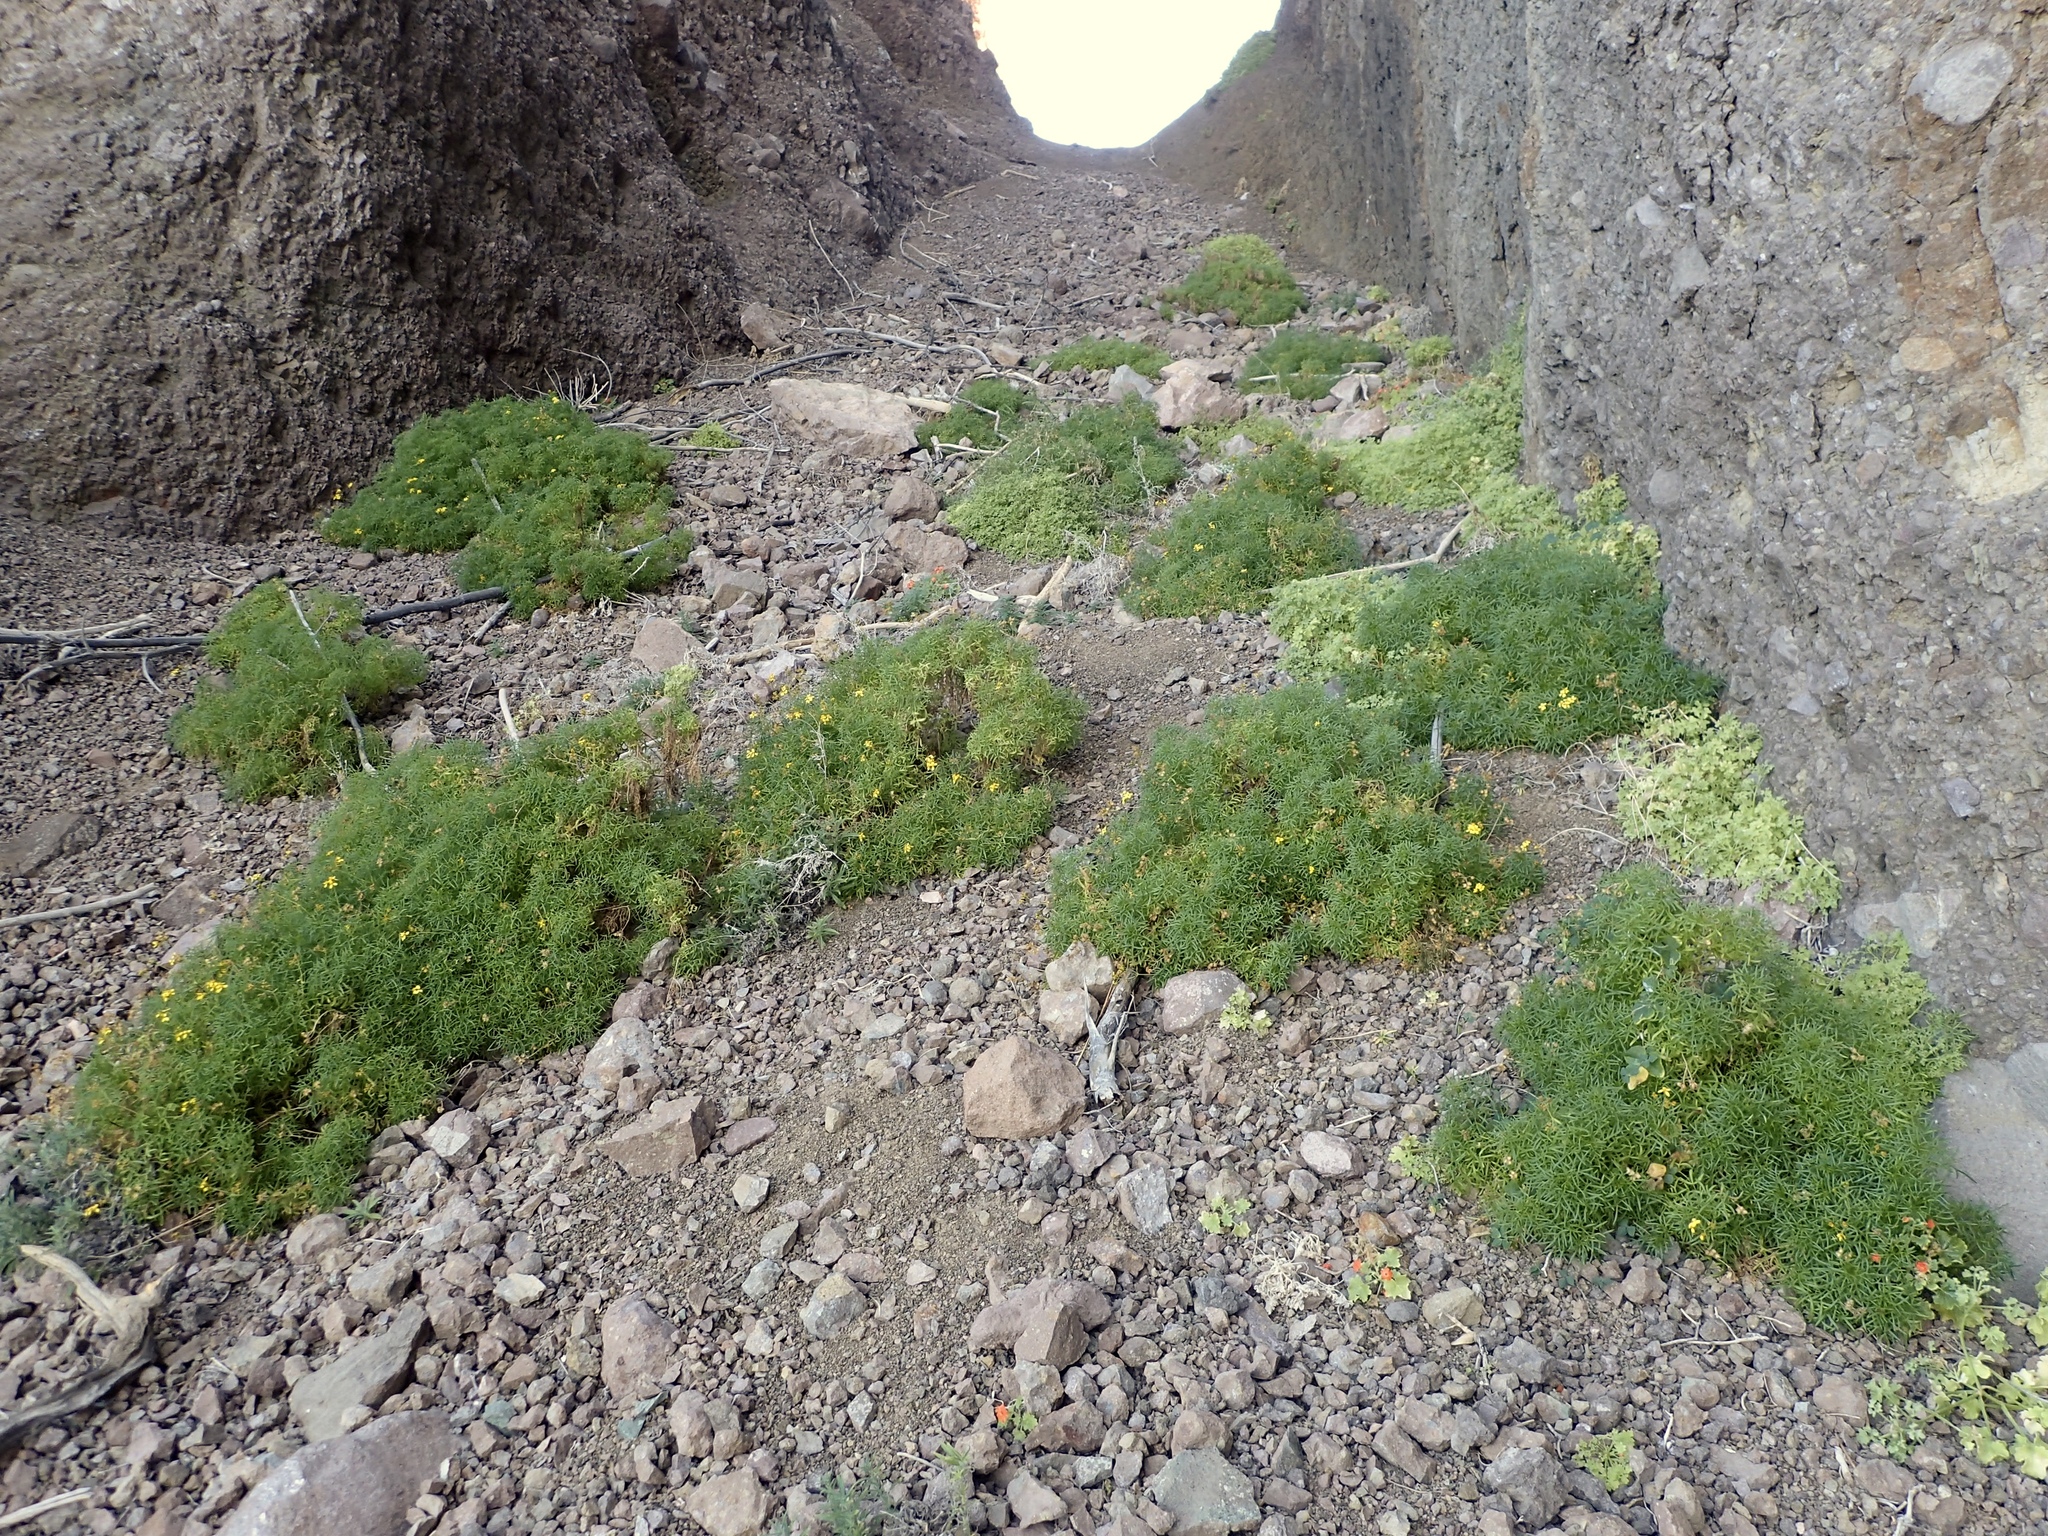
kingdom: Plantae
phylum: Tracheophyta
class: Magnoliopsida
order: Asterales
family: Asteraceae
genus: Coreocarpus
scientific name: Coreocarpus dissectus
